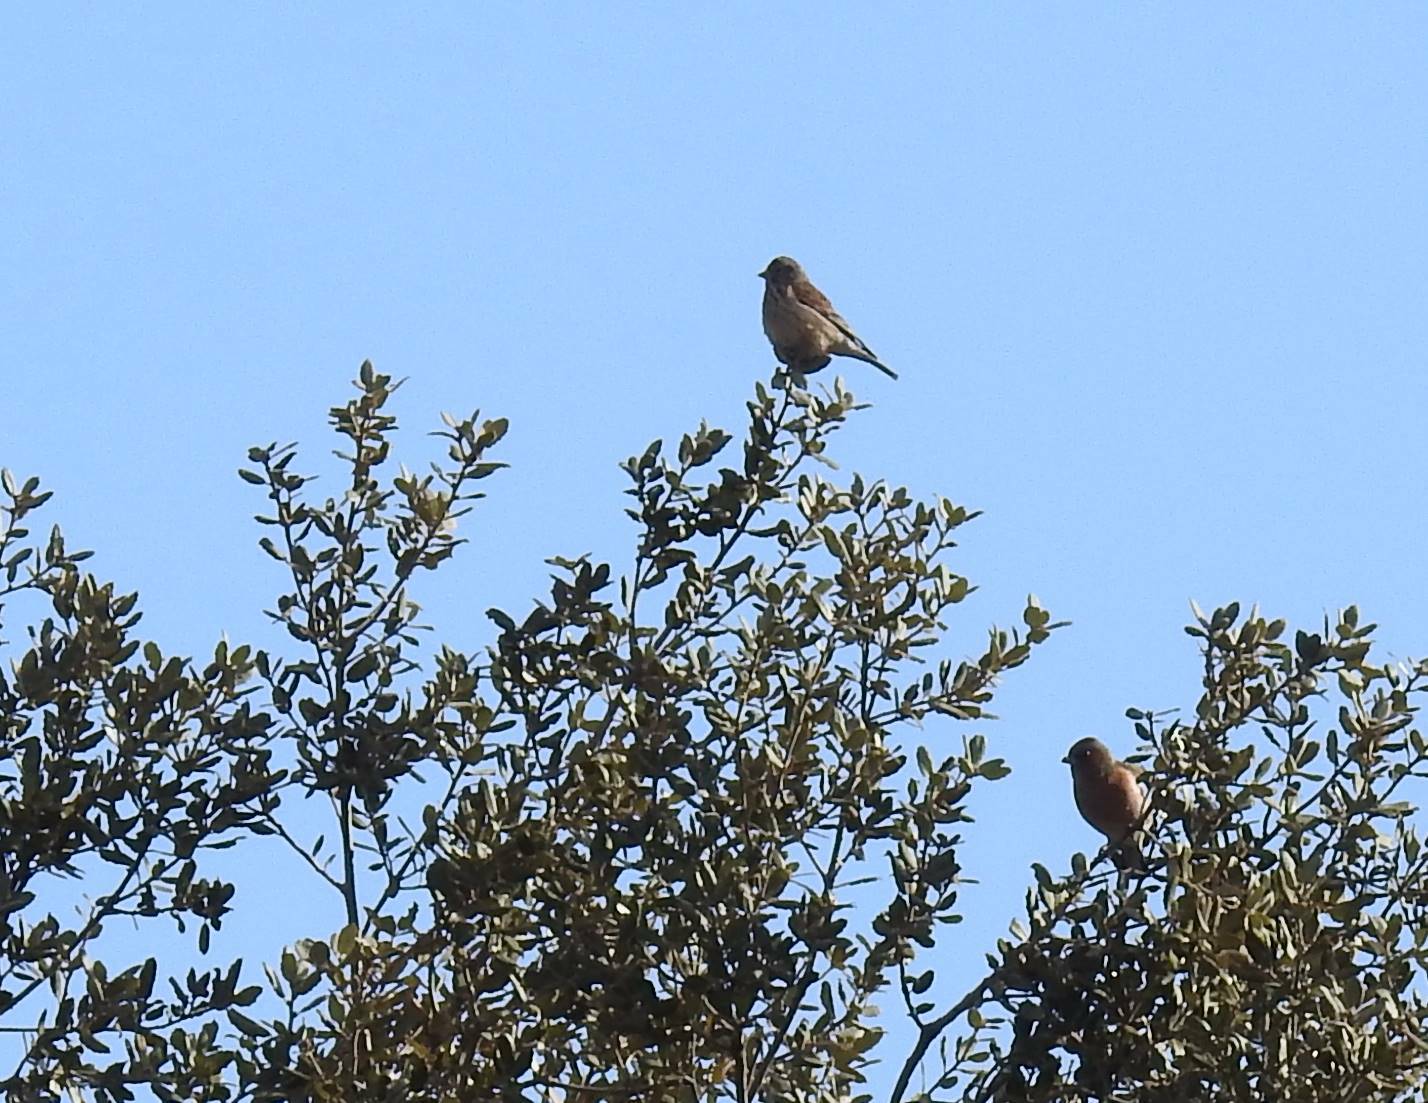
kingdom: Animalia
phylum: Chordata
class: Aves
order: Passeriformes
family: Fringillidae
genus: Linaria
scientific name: Linaria cannabina
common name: Common linnet
